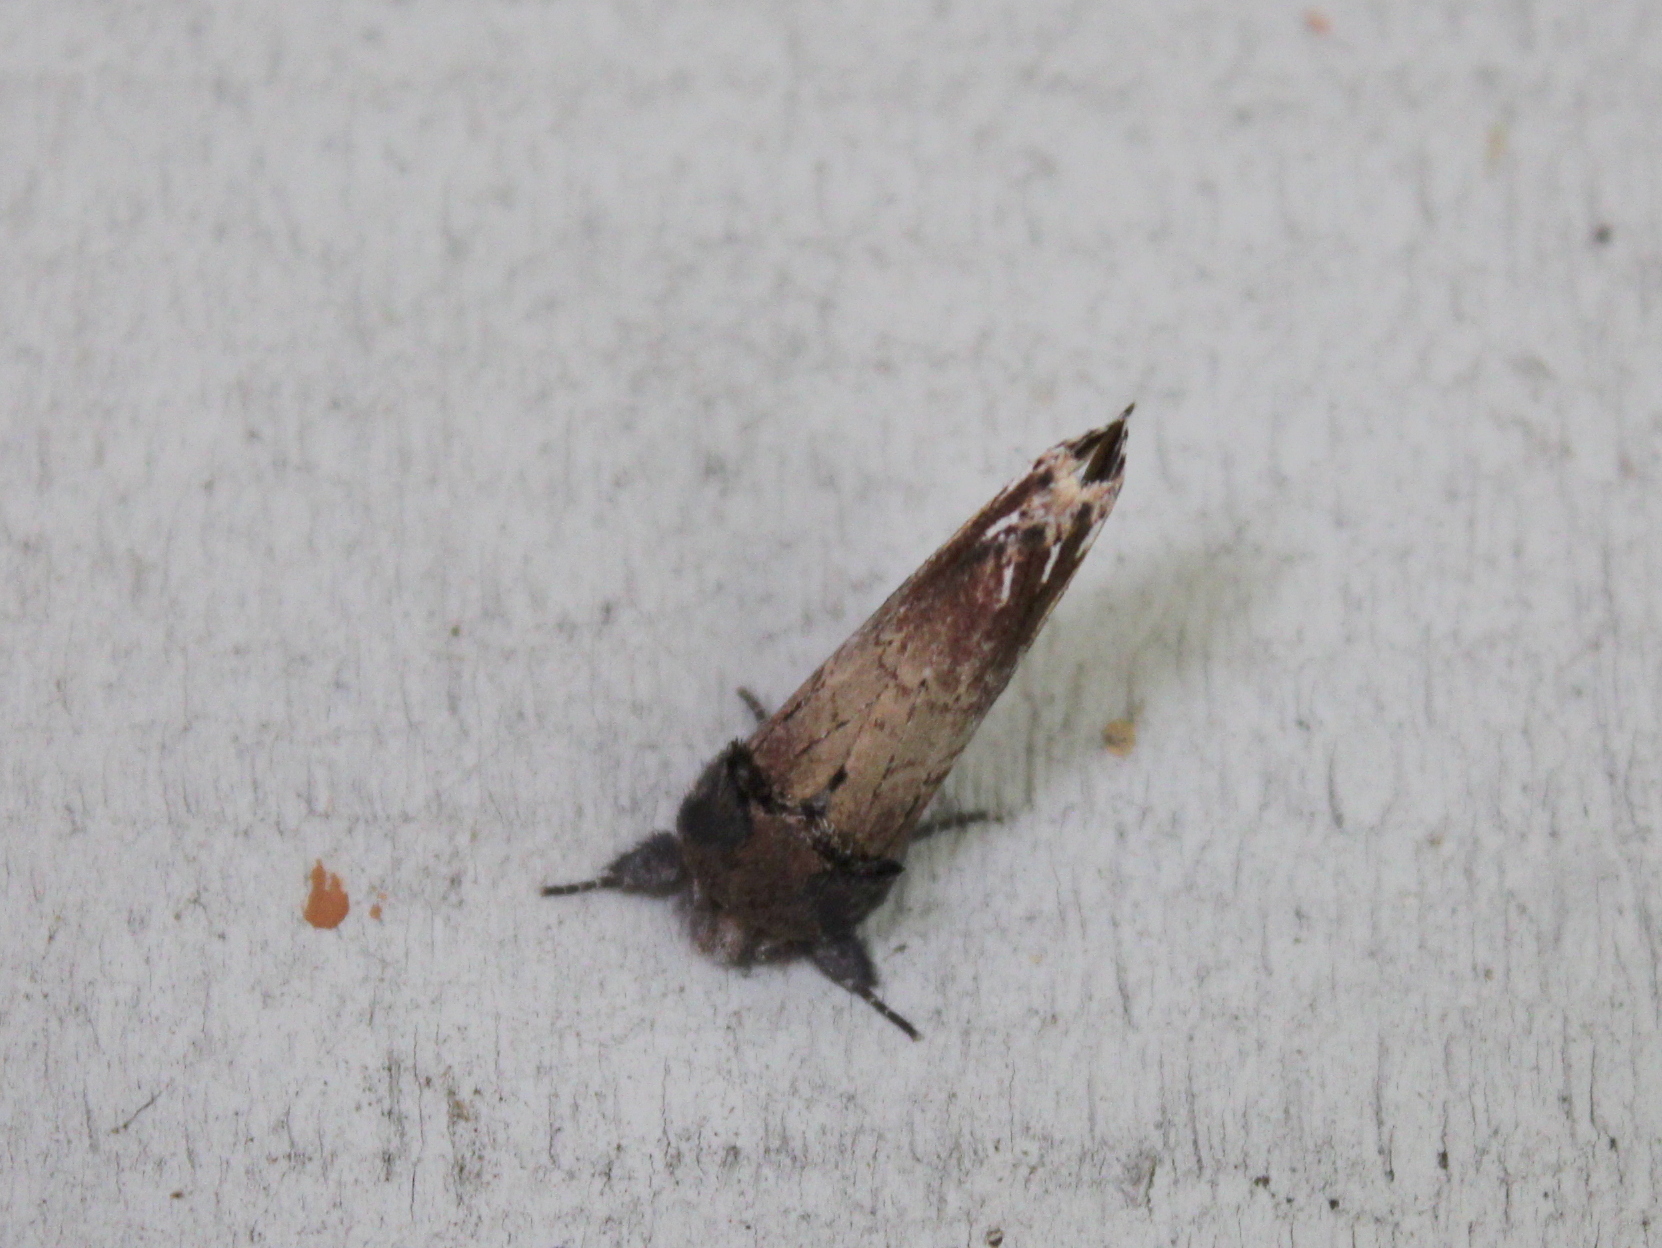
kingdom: Animalia
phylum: Arthropoda
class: Insecta
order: Lepidoptera
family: Notodontidae
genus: Schizura
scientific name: Schizura badia
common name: Chestnut schizura
